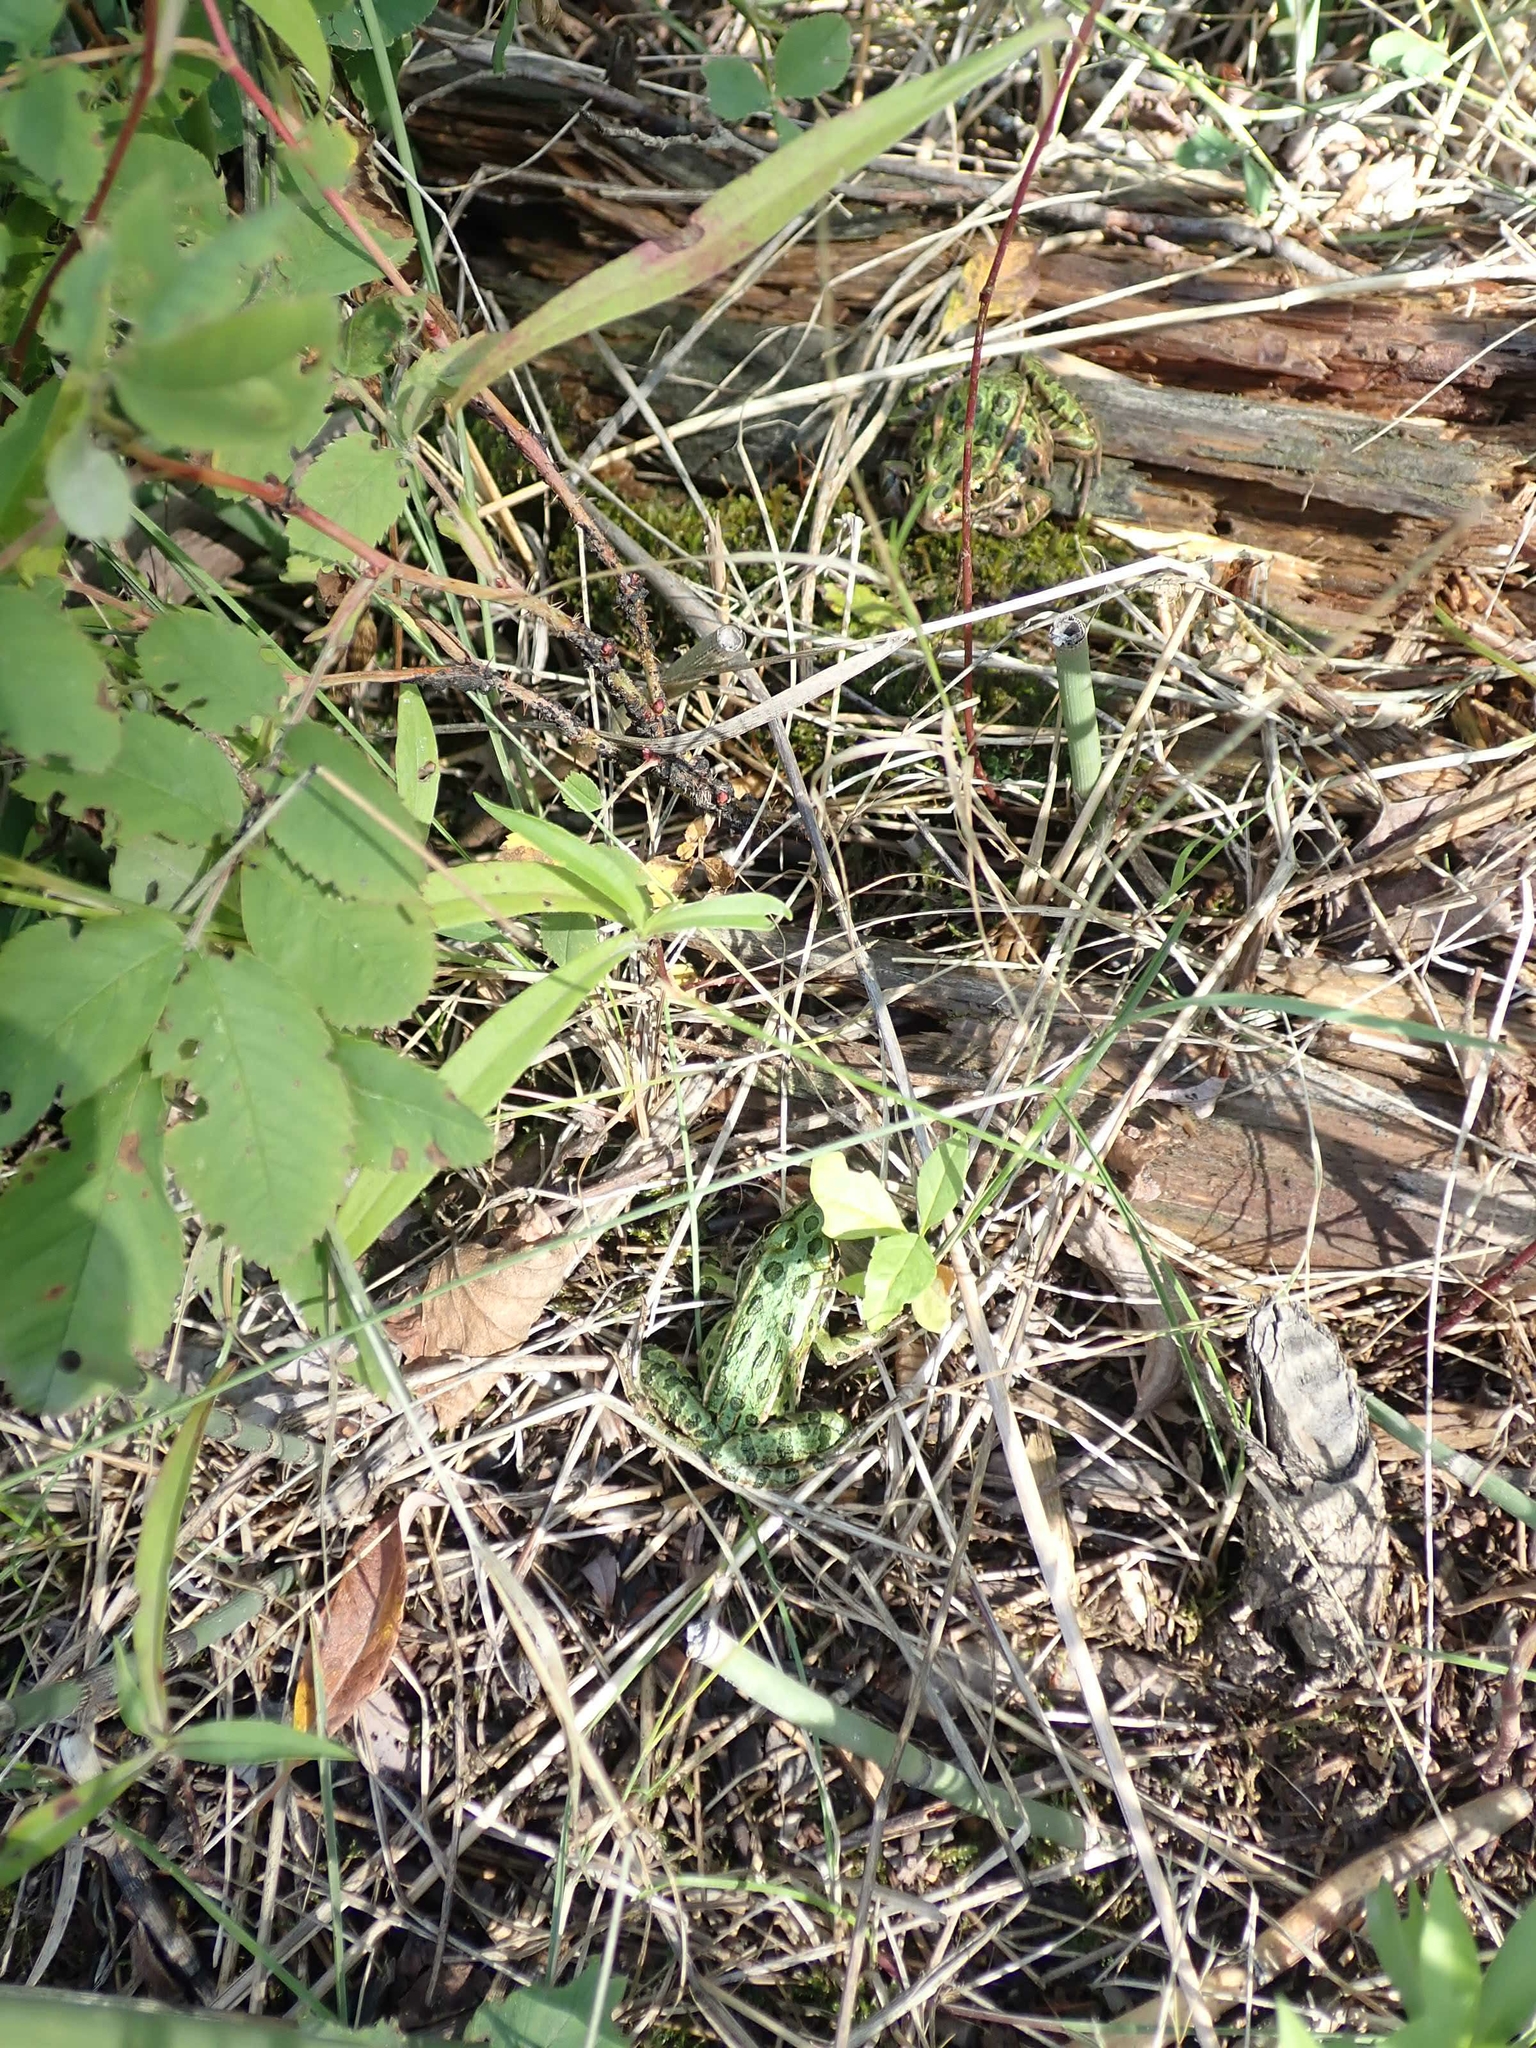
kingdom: Animalia
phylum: Chordata
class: Amphibia
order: Anura
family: Ranidae
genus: Lithobates
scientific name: Lithobates pipiens
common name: Northern leopard frog
